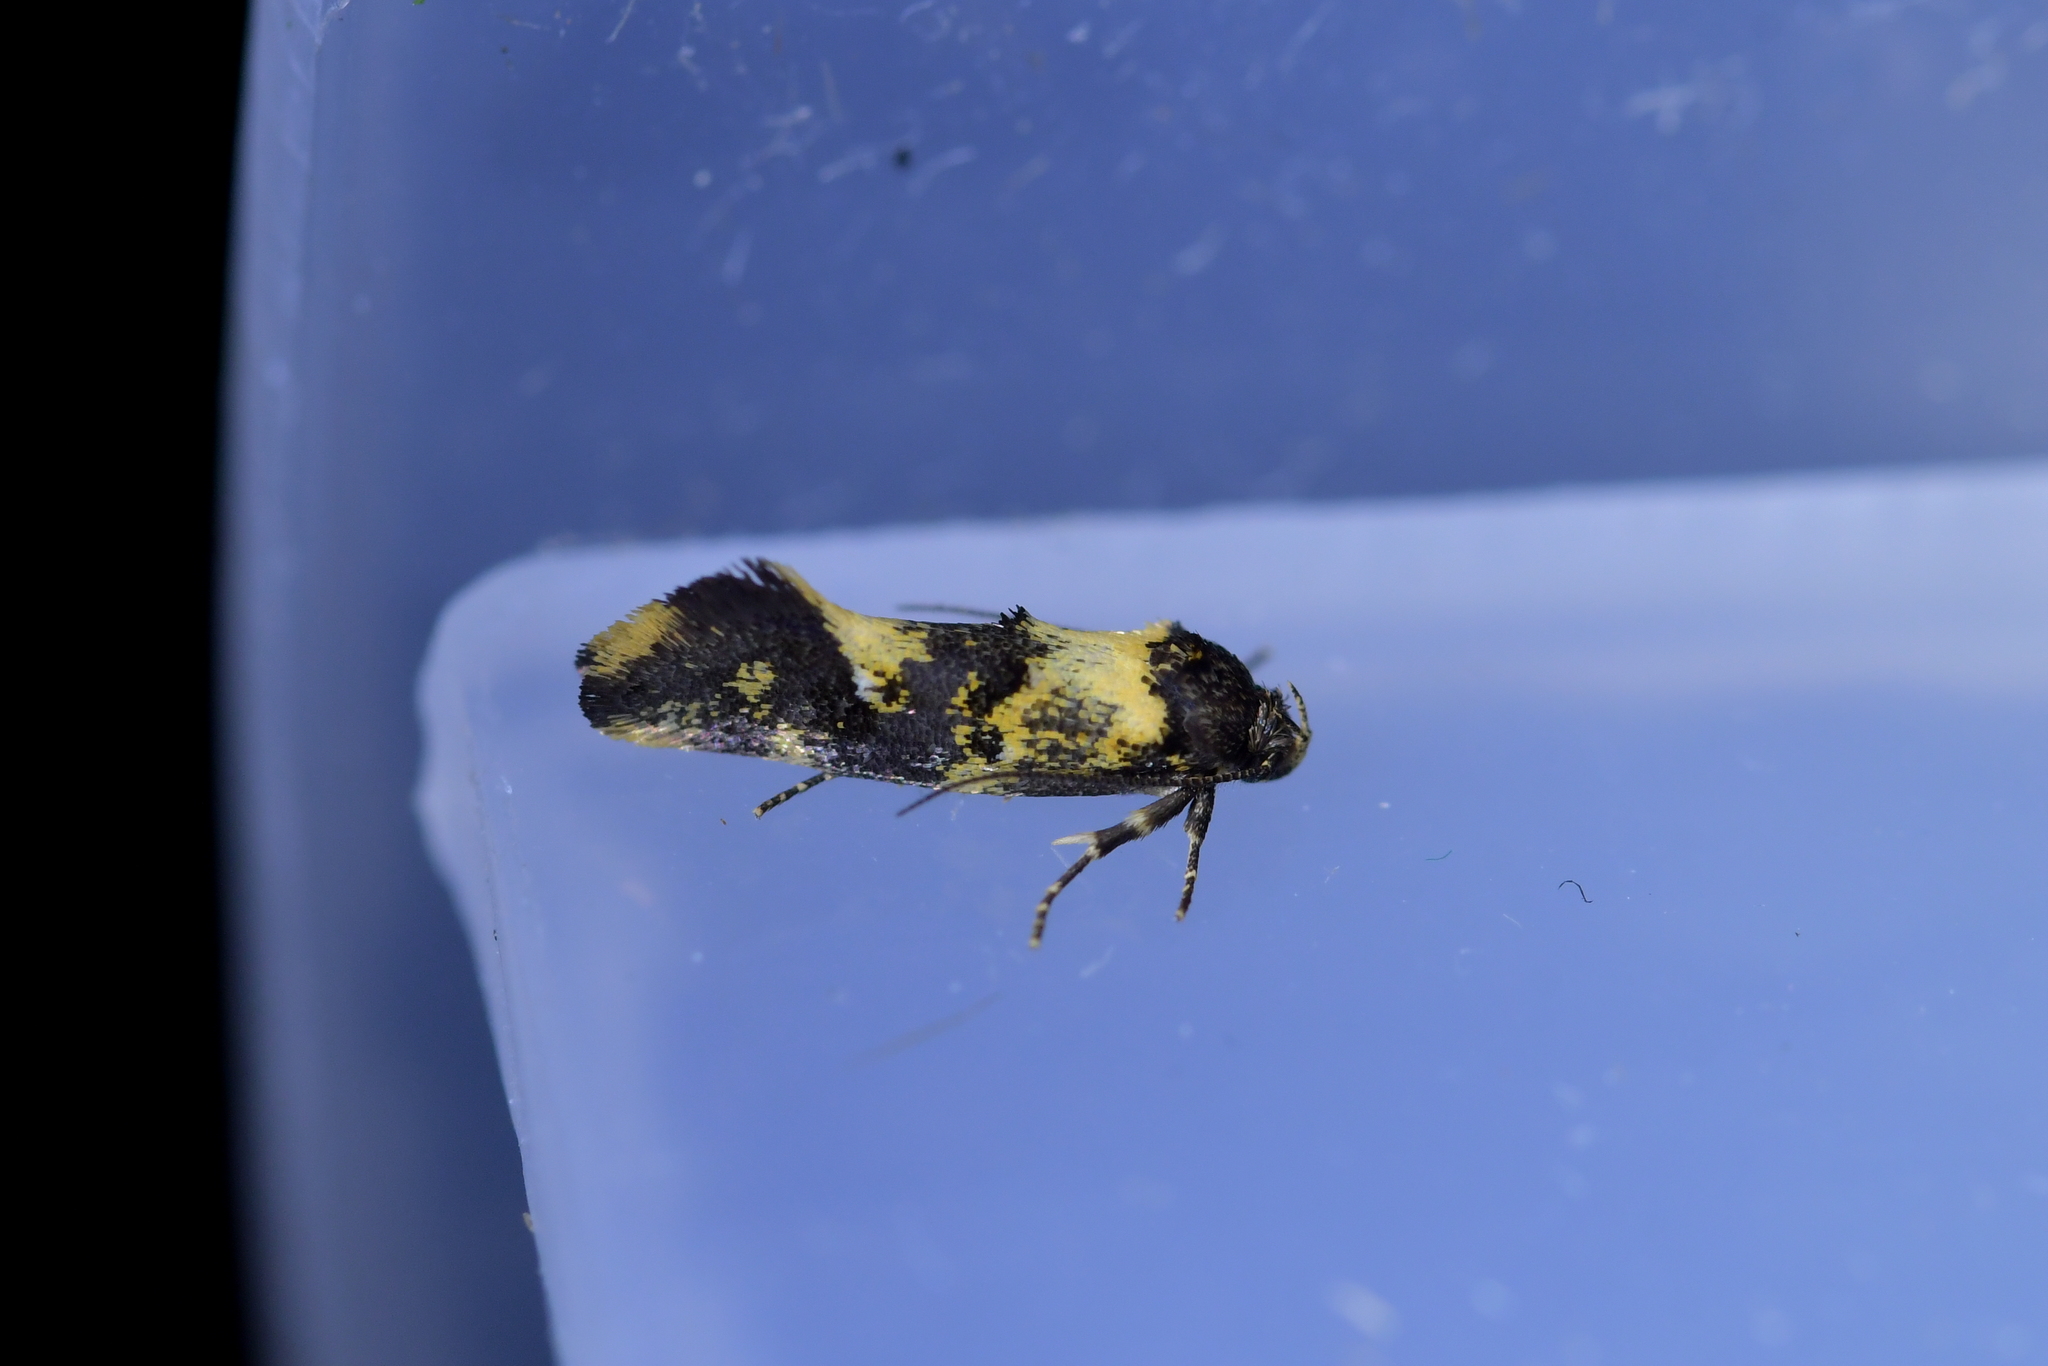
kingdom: Animalia
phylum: Arthropoda
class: Insecta
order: Lepidoptera
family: Oecophoridae
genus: Trachypepla
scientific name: Trachypepla lichenodes
